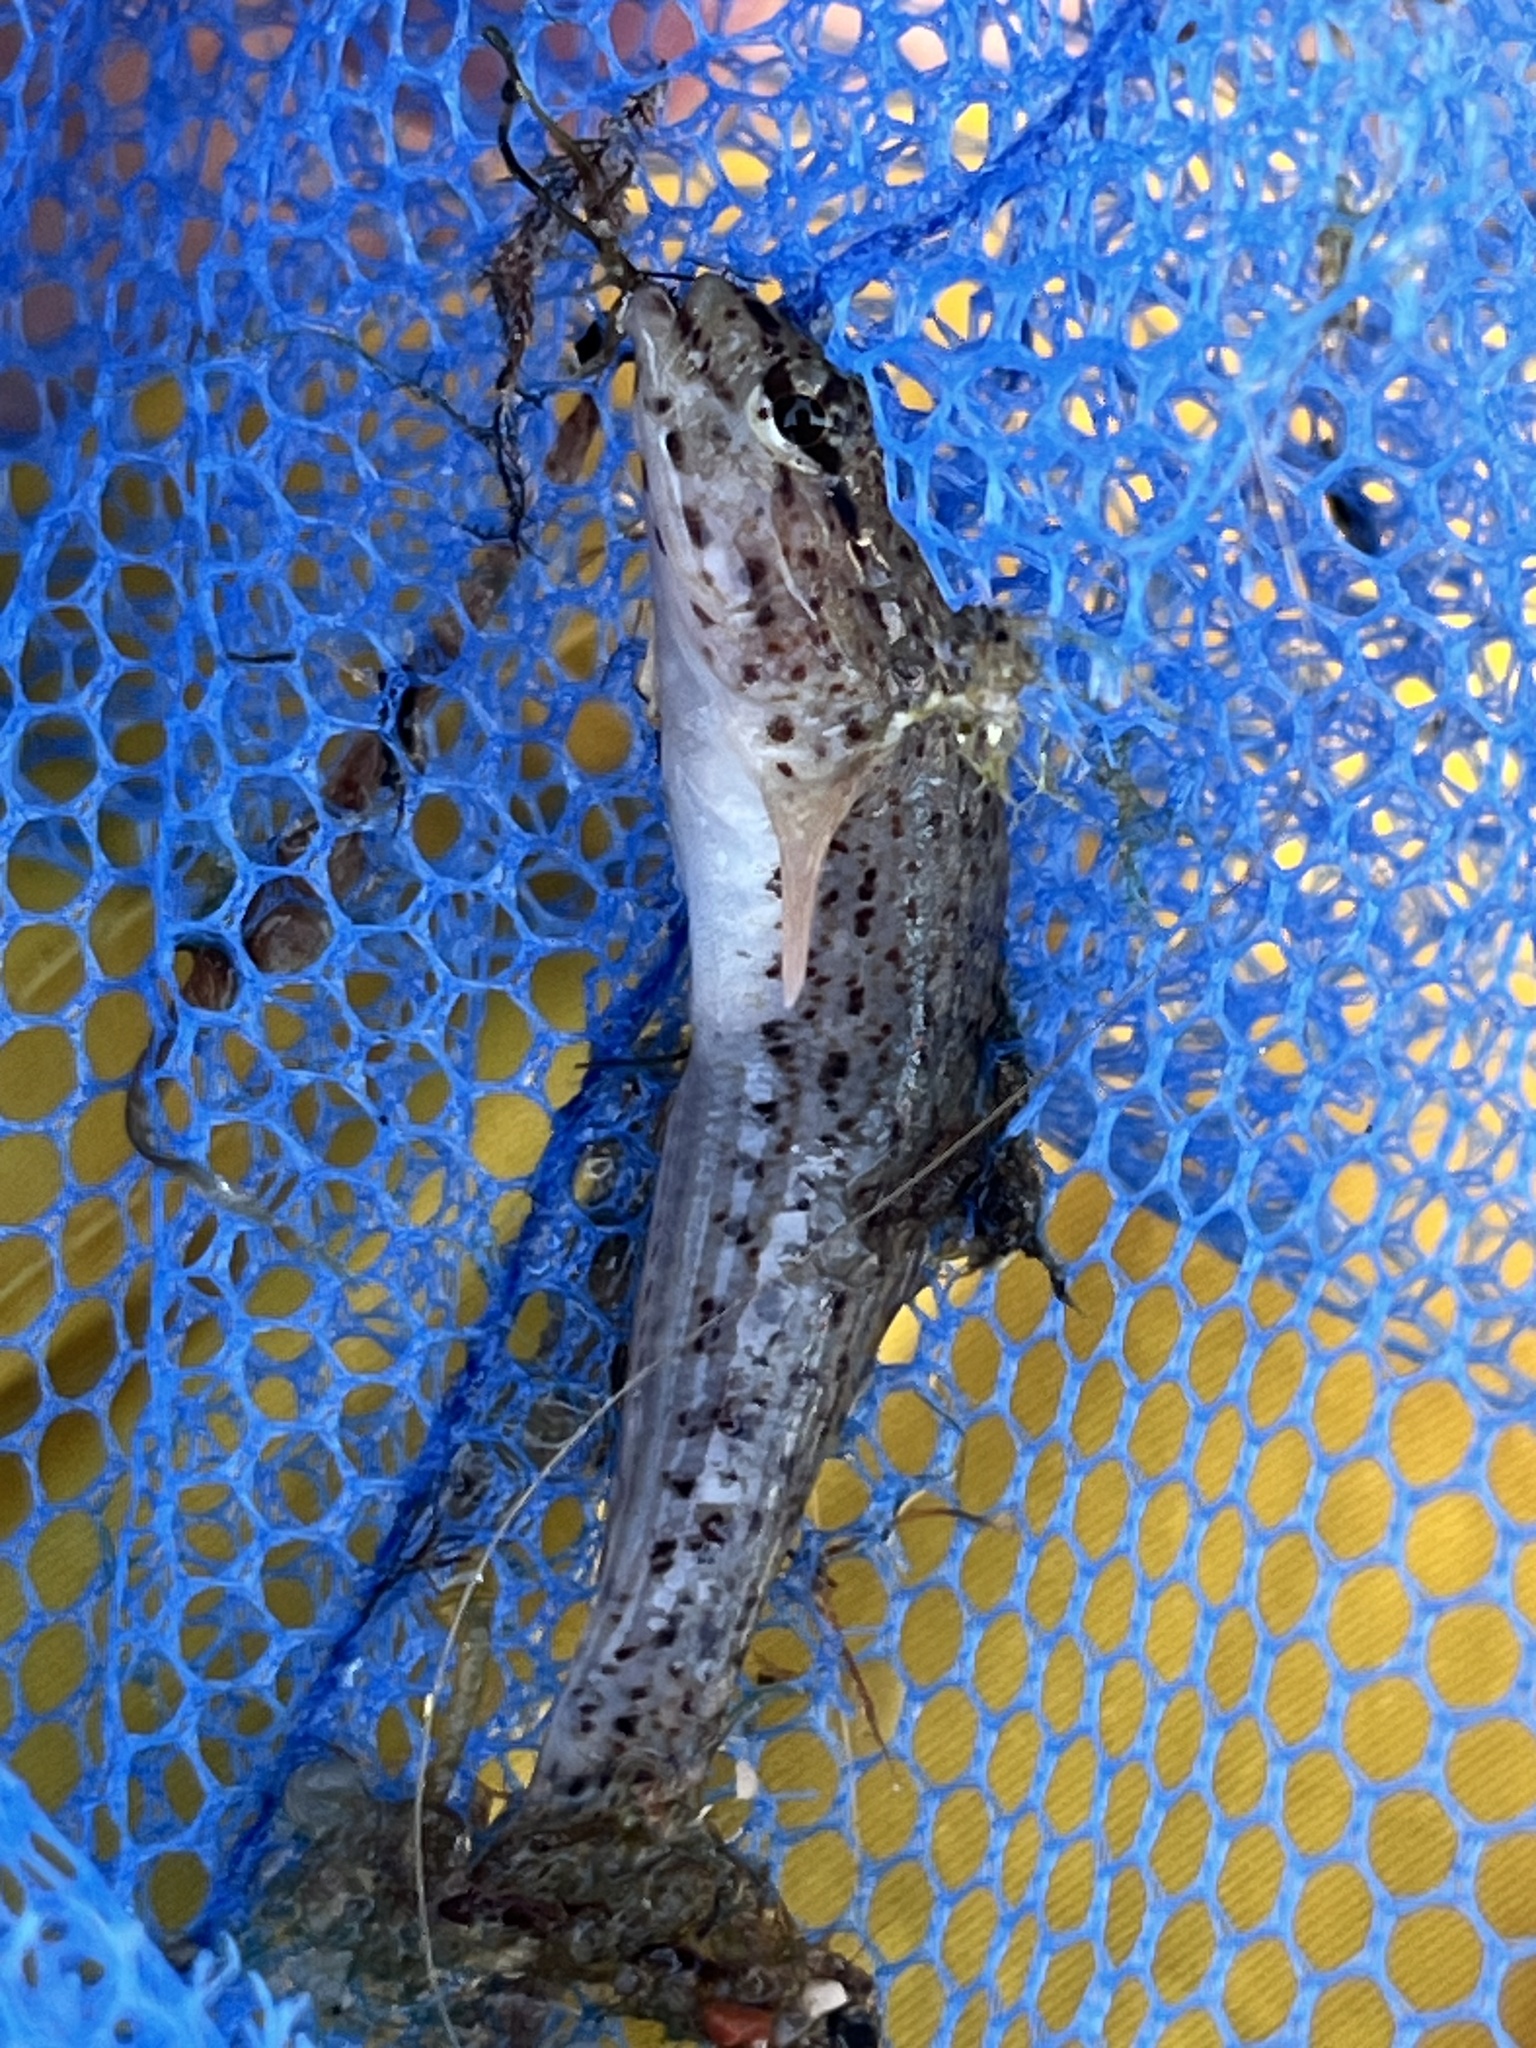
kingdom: Animalia
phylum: Chordata
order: Perciformes
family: Gobiidae
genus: Gobius
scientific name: Gobius incognitus
